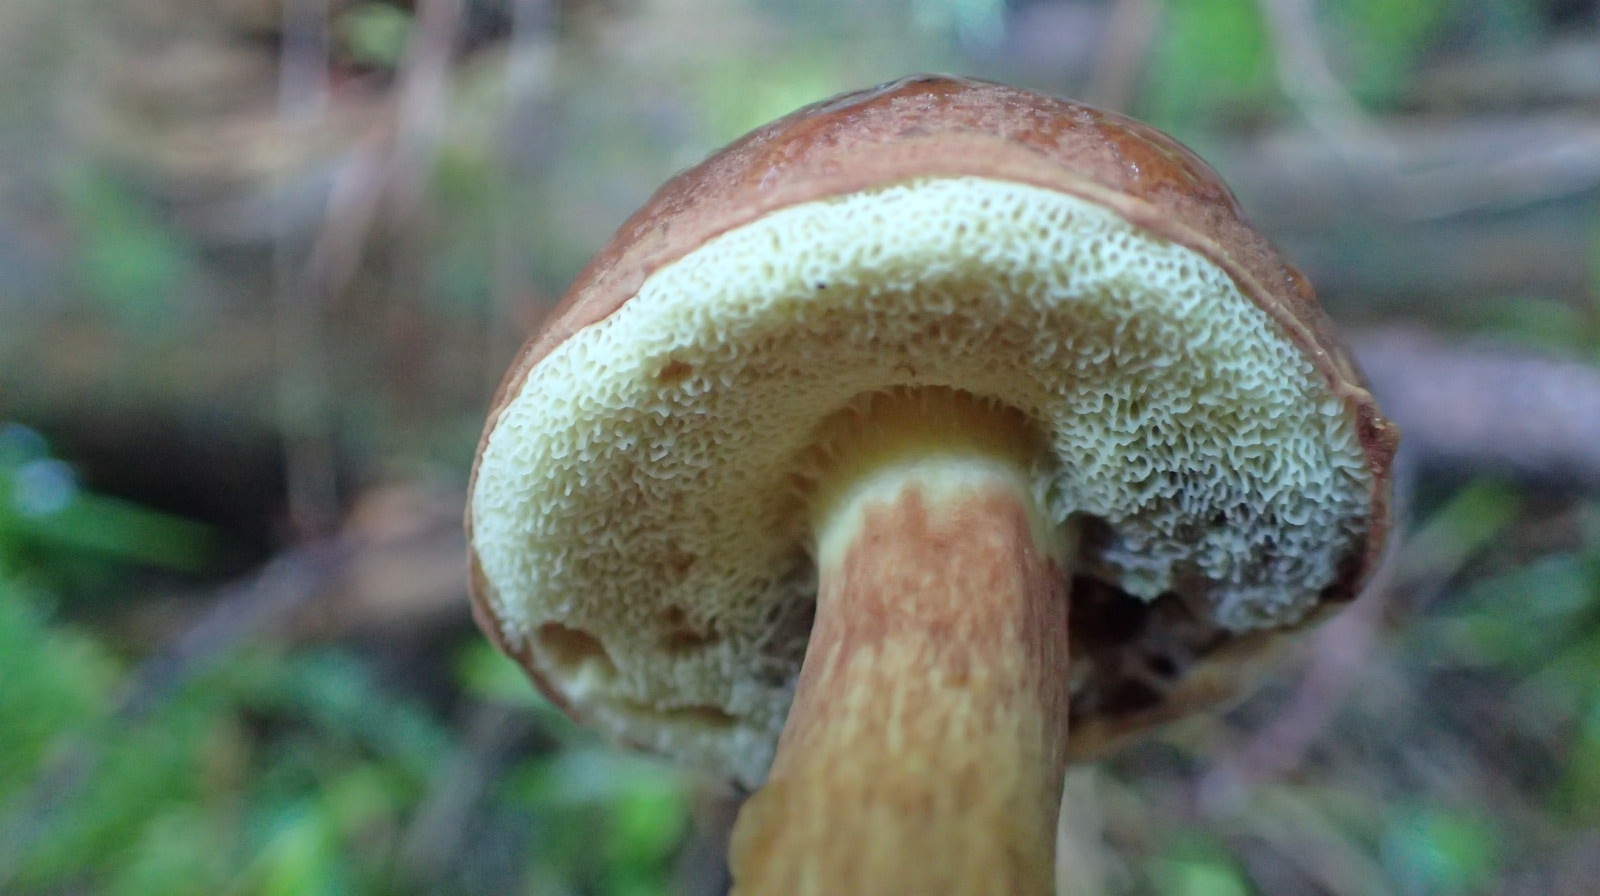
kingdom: Fungi
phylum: Basidiomycota
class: Agaricomycetes
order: Boletales
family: Boletaceae
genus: Imleria
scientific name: Imleria badia
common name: Bay bolete
